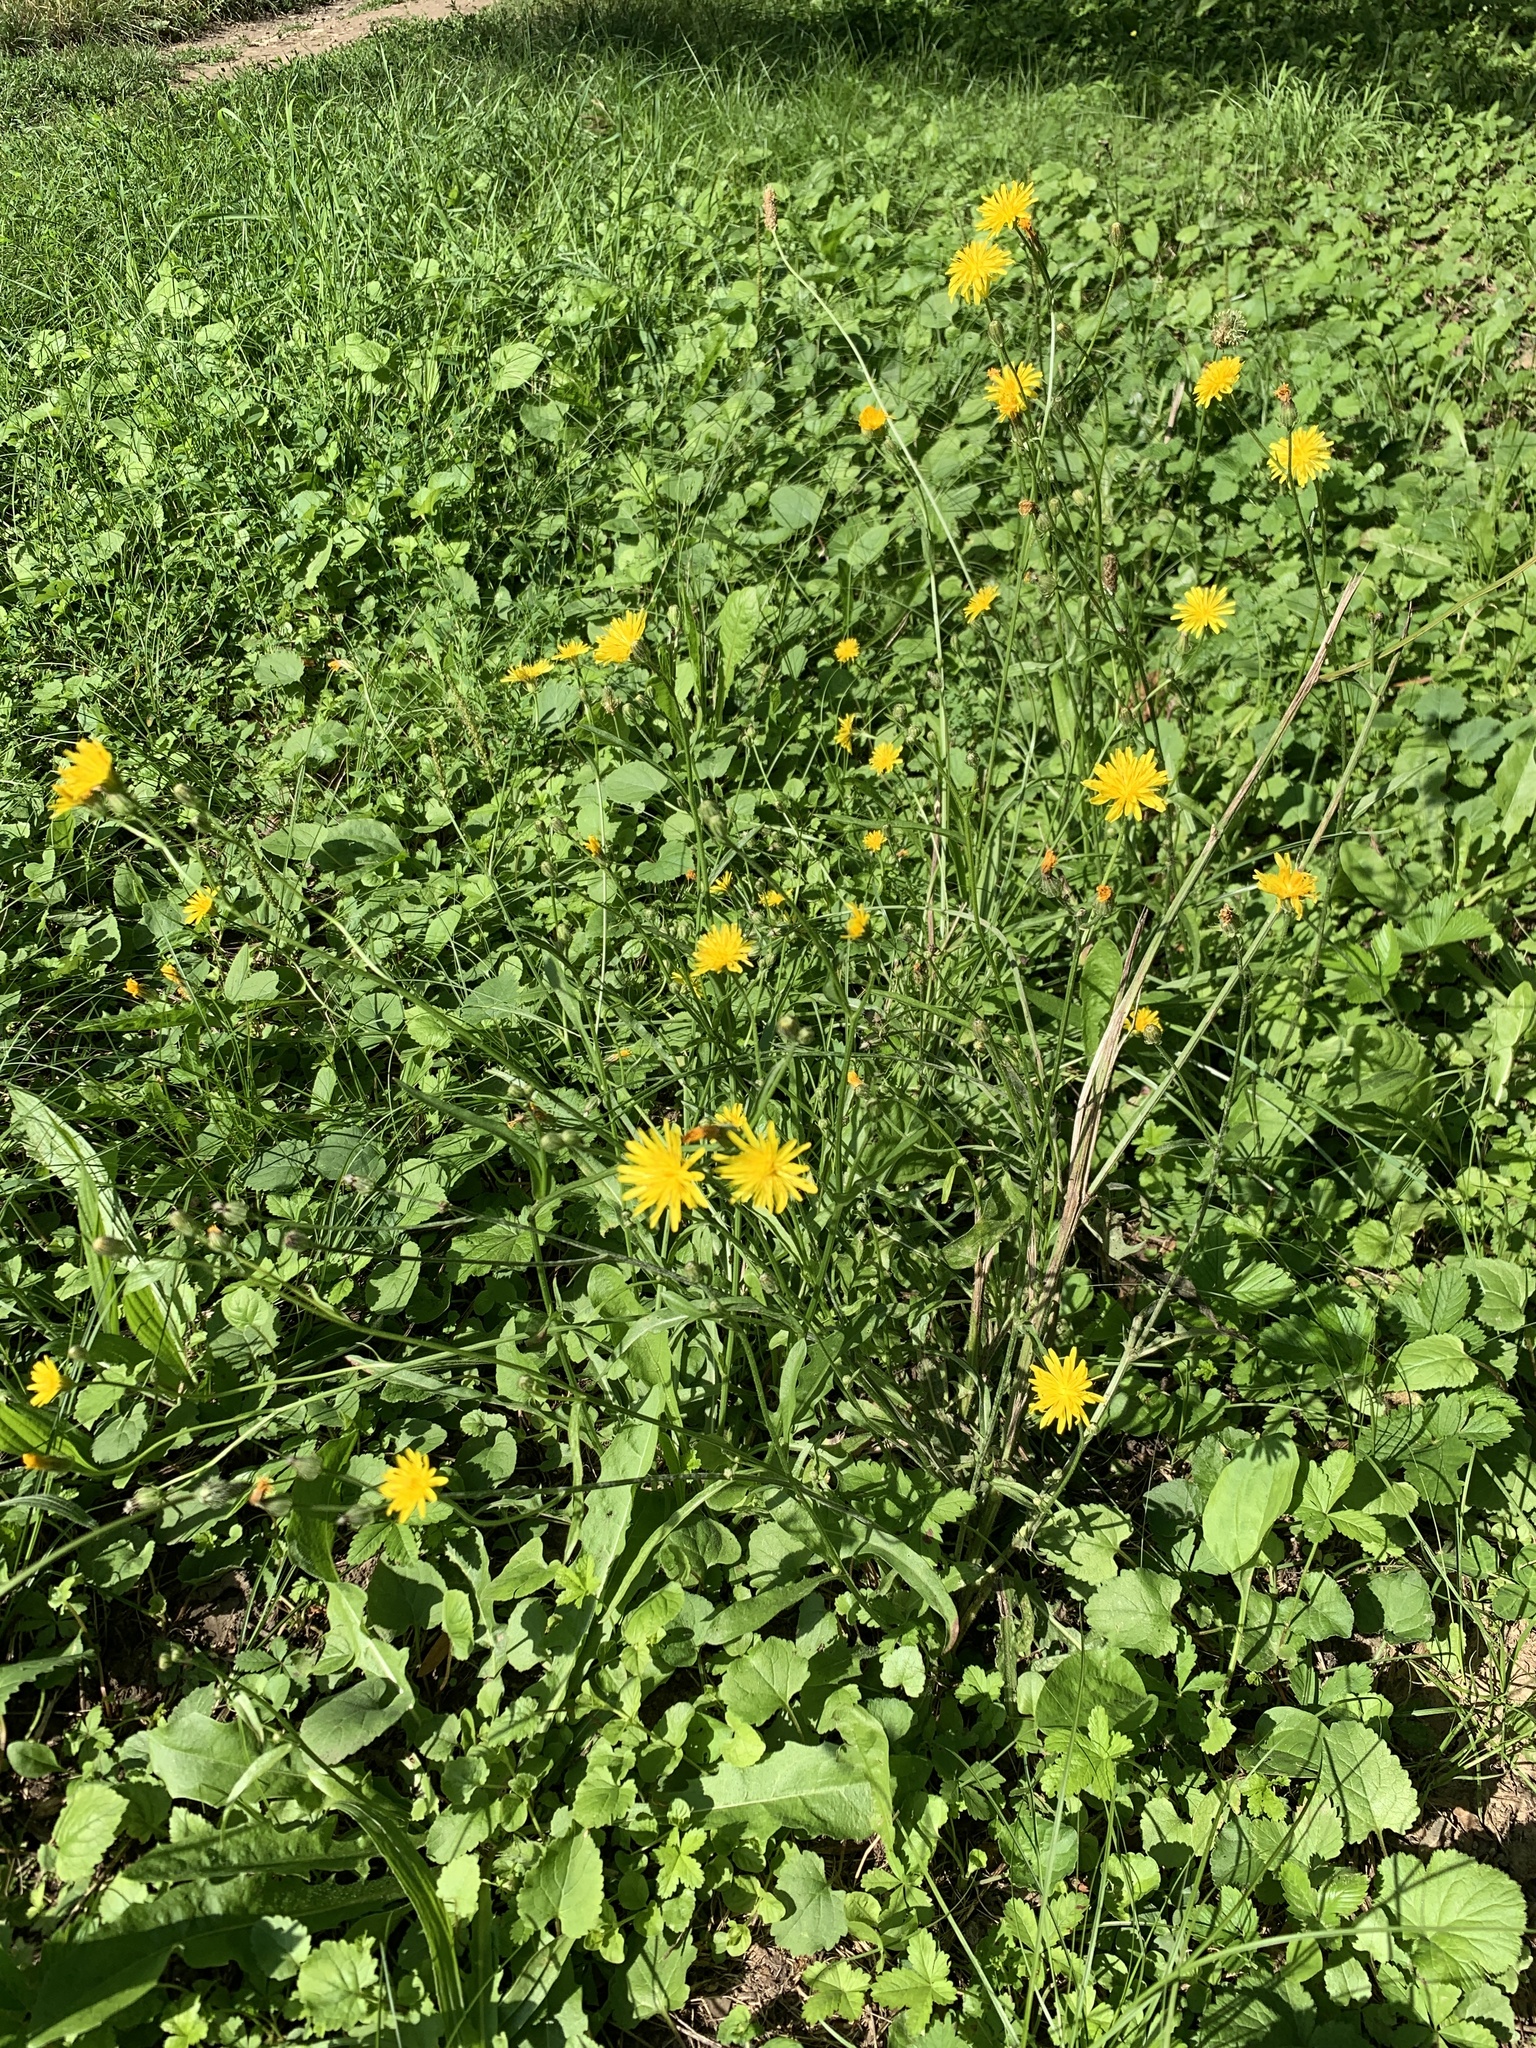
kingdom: Plantae
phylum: Tracheophyta
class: Magnoliopsida
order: Asterales
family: Asteraceae
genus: Crepis
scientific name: Crepis biennis
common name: Rough hawk's-beard
